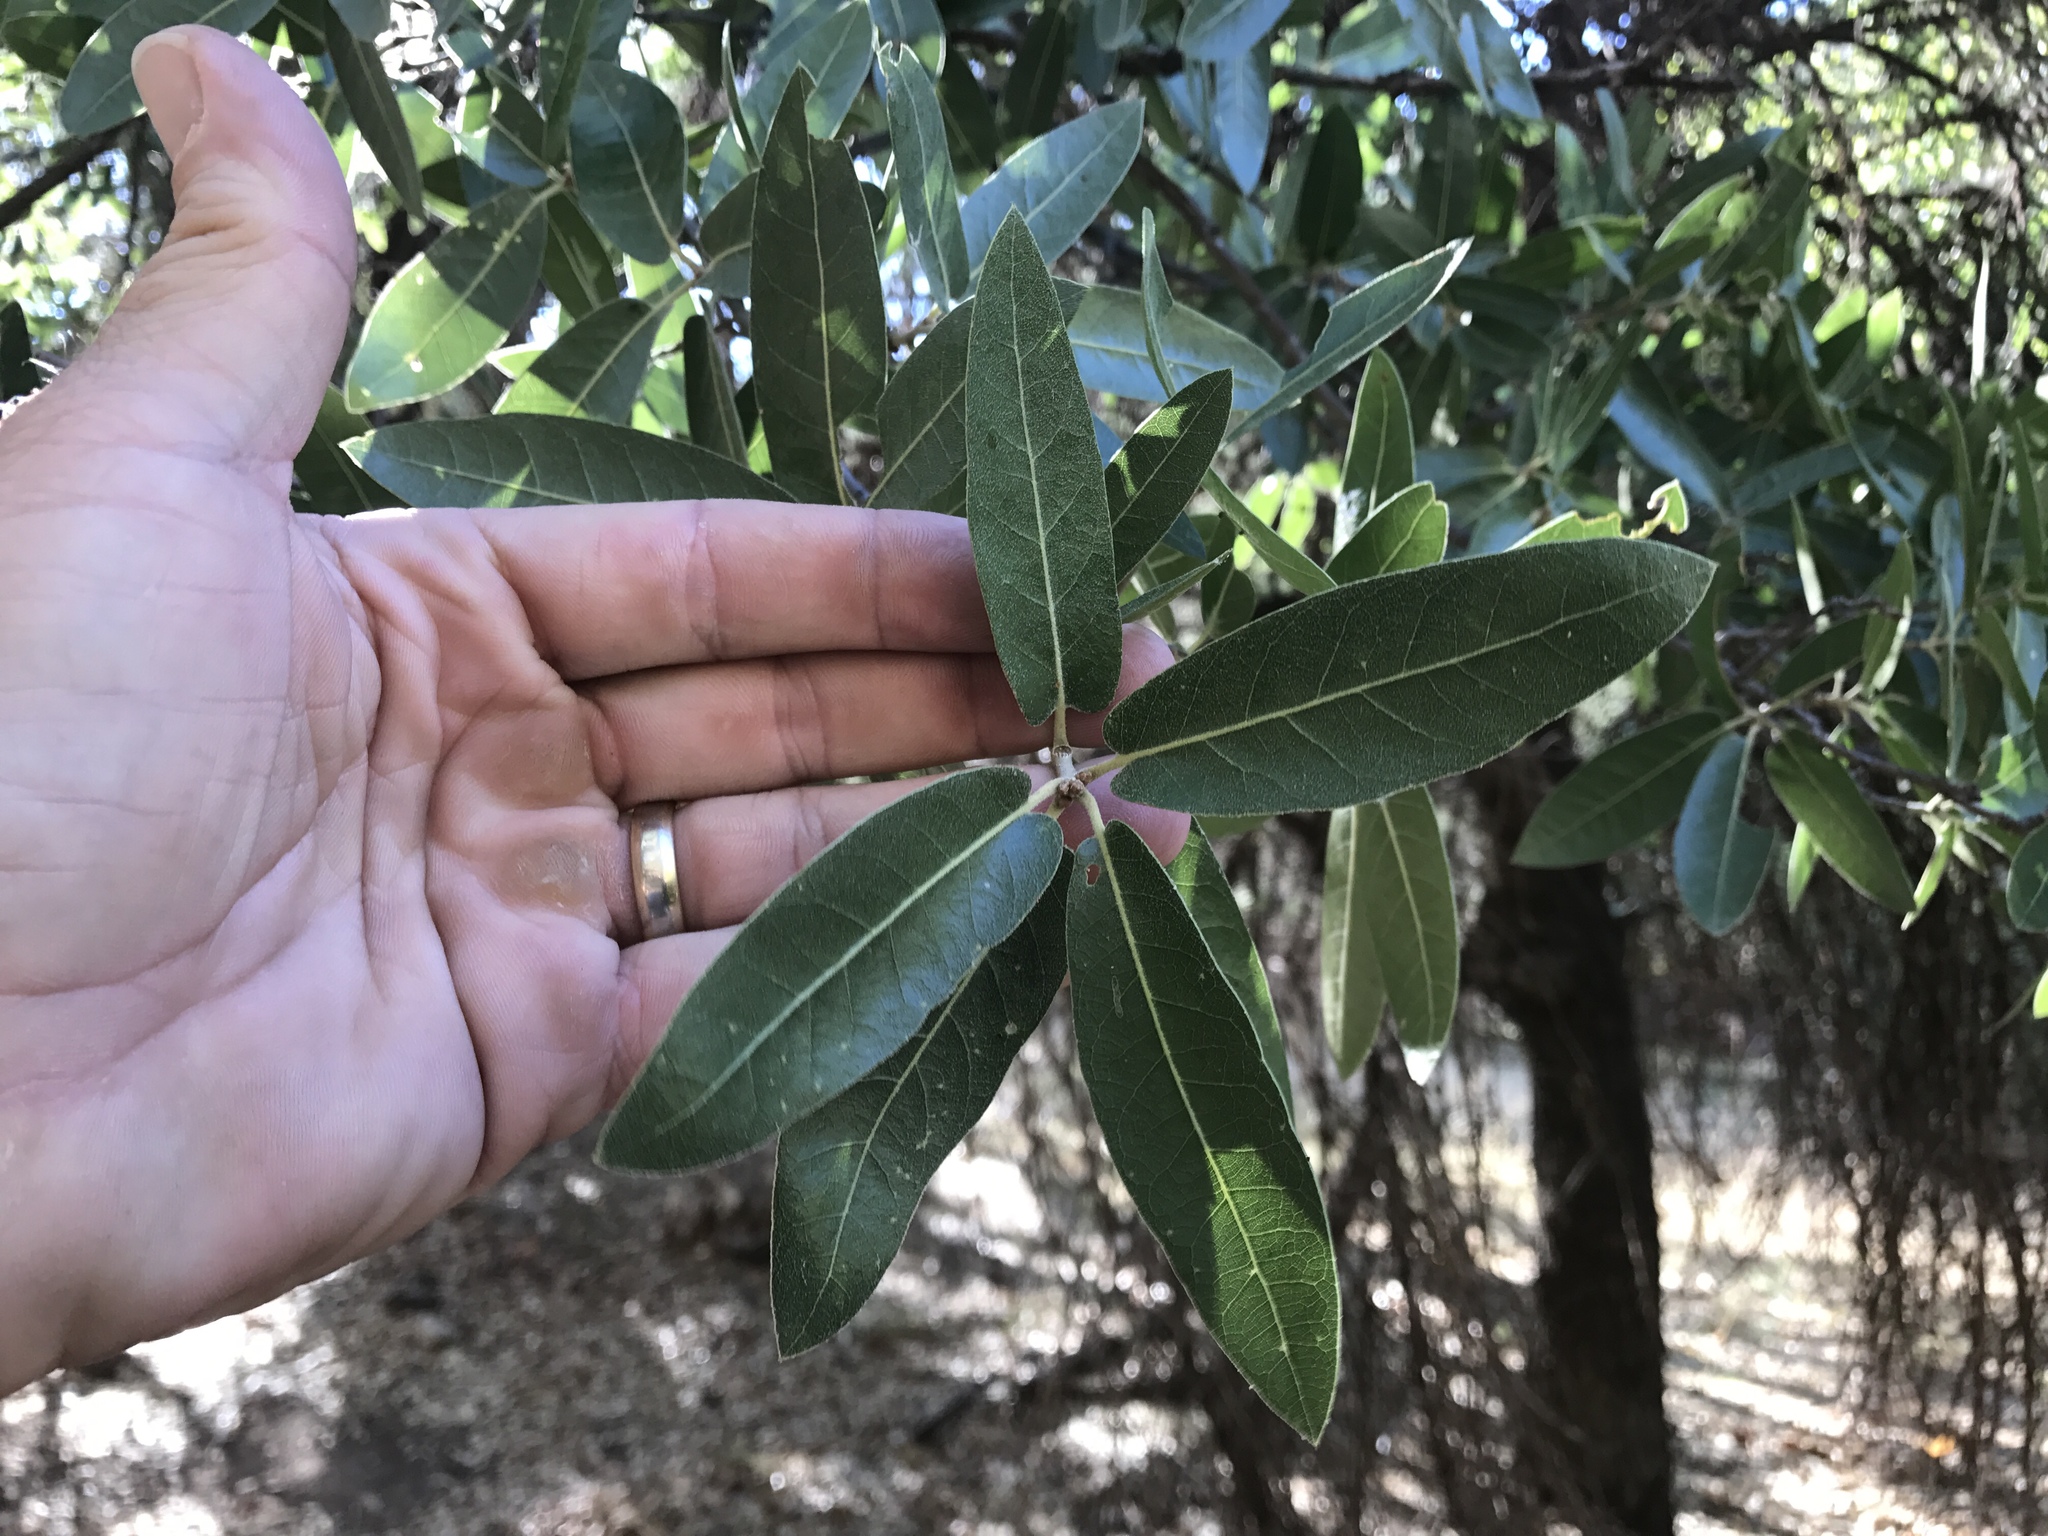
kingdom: Plantae
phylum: Tracheophyta
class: Magnoliopsida
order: Fagales
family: Fagaceae
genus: Quercus
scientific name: Quercus hypoleucoides
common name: Silverleaf oak
